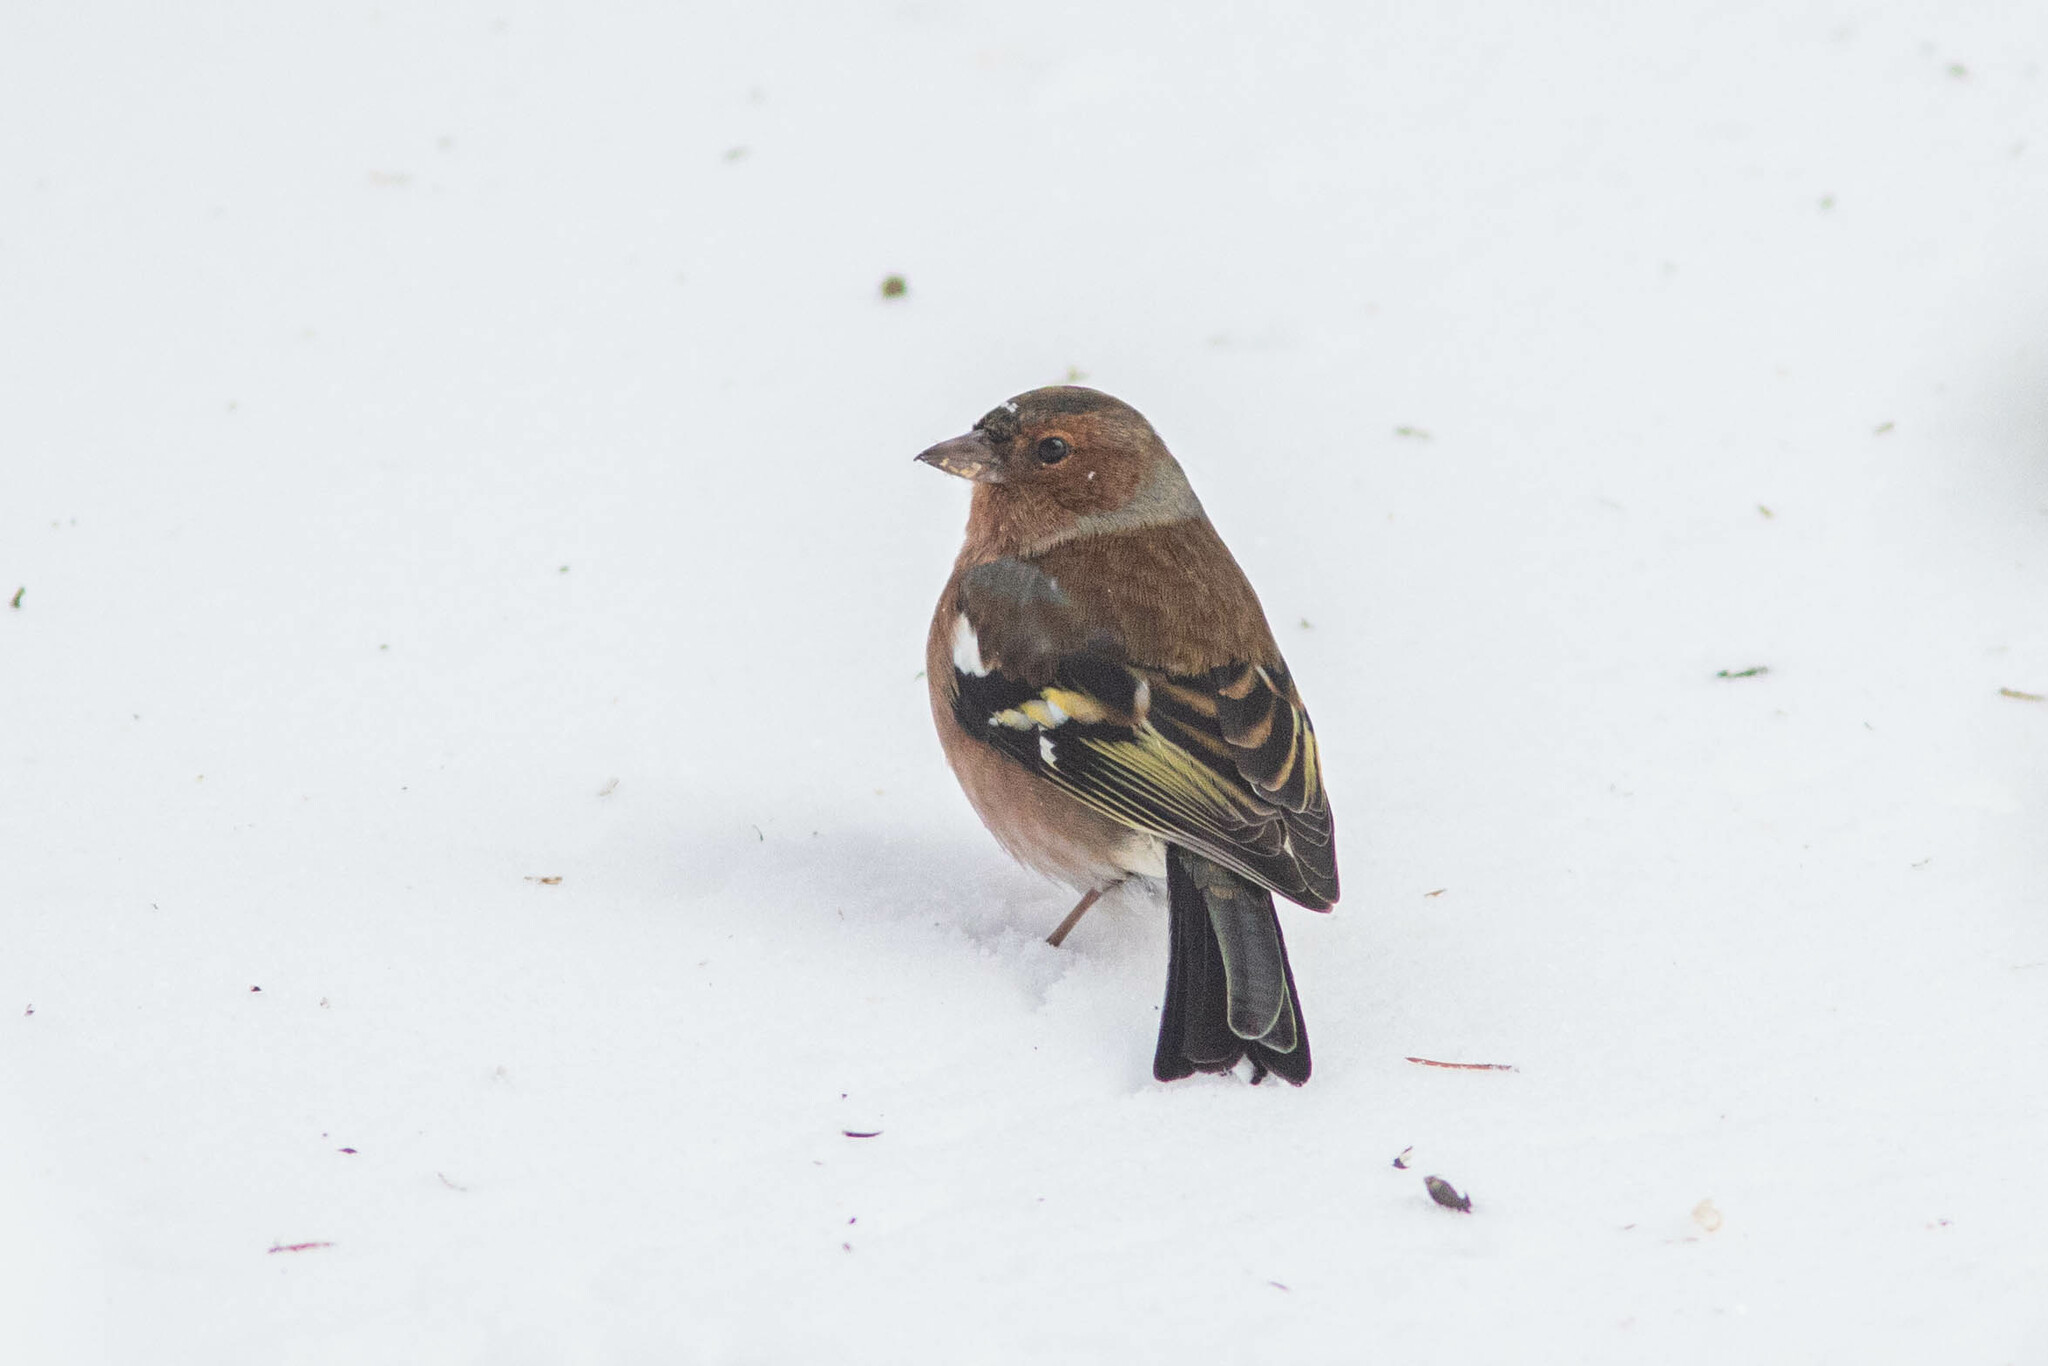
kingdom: Animalia
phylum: Chordata
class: Aves
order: Passeriformes
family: Fringillidae
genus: Fringilla
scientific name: Fringilla coelebs
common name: Common chaffinch
